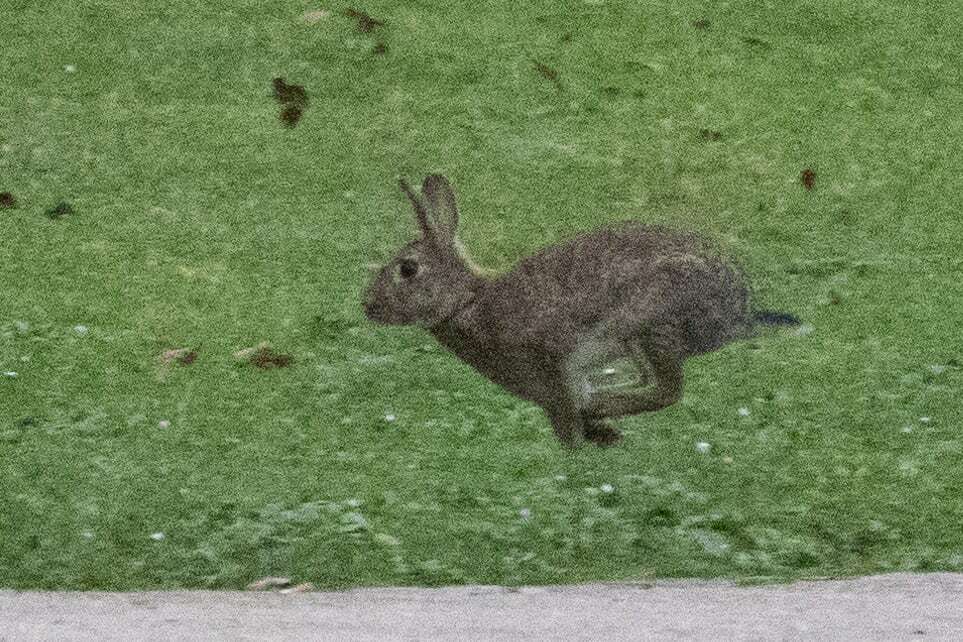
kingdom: Animalia
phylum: Chordata
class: Mammalia
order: Lagomorpha
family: Leporidae
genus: Oryctolagus
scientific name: Oryctolagus cuniculus
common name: European rabbit
